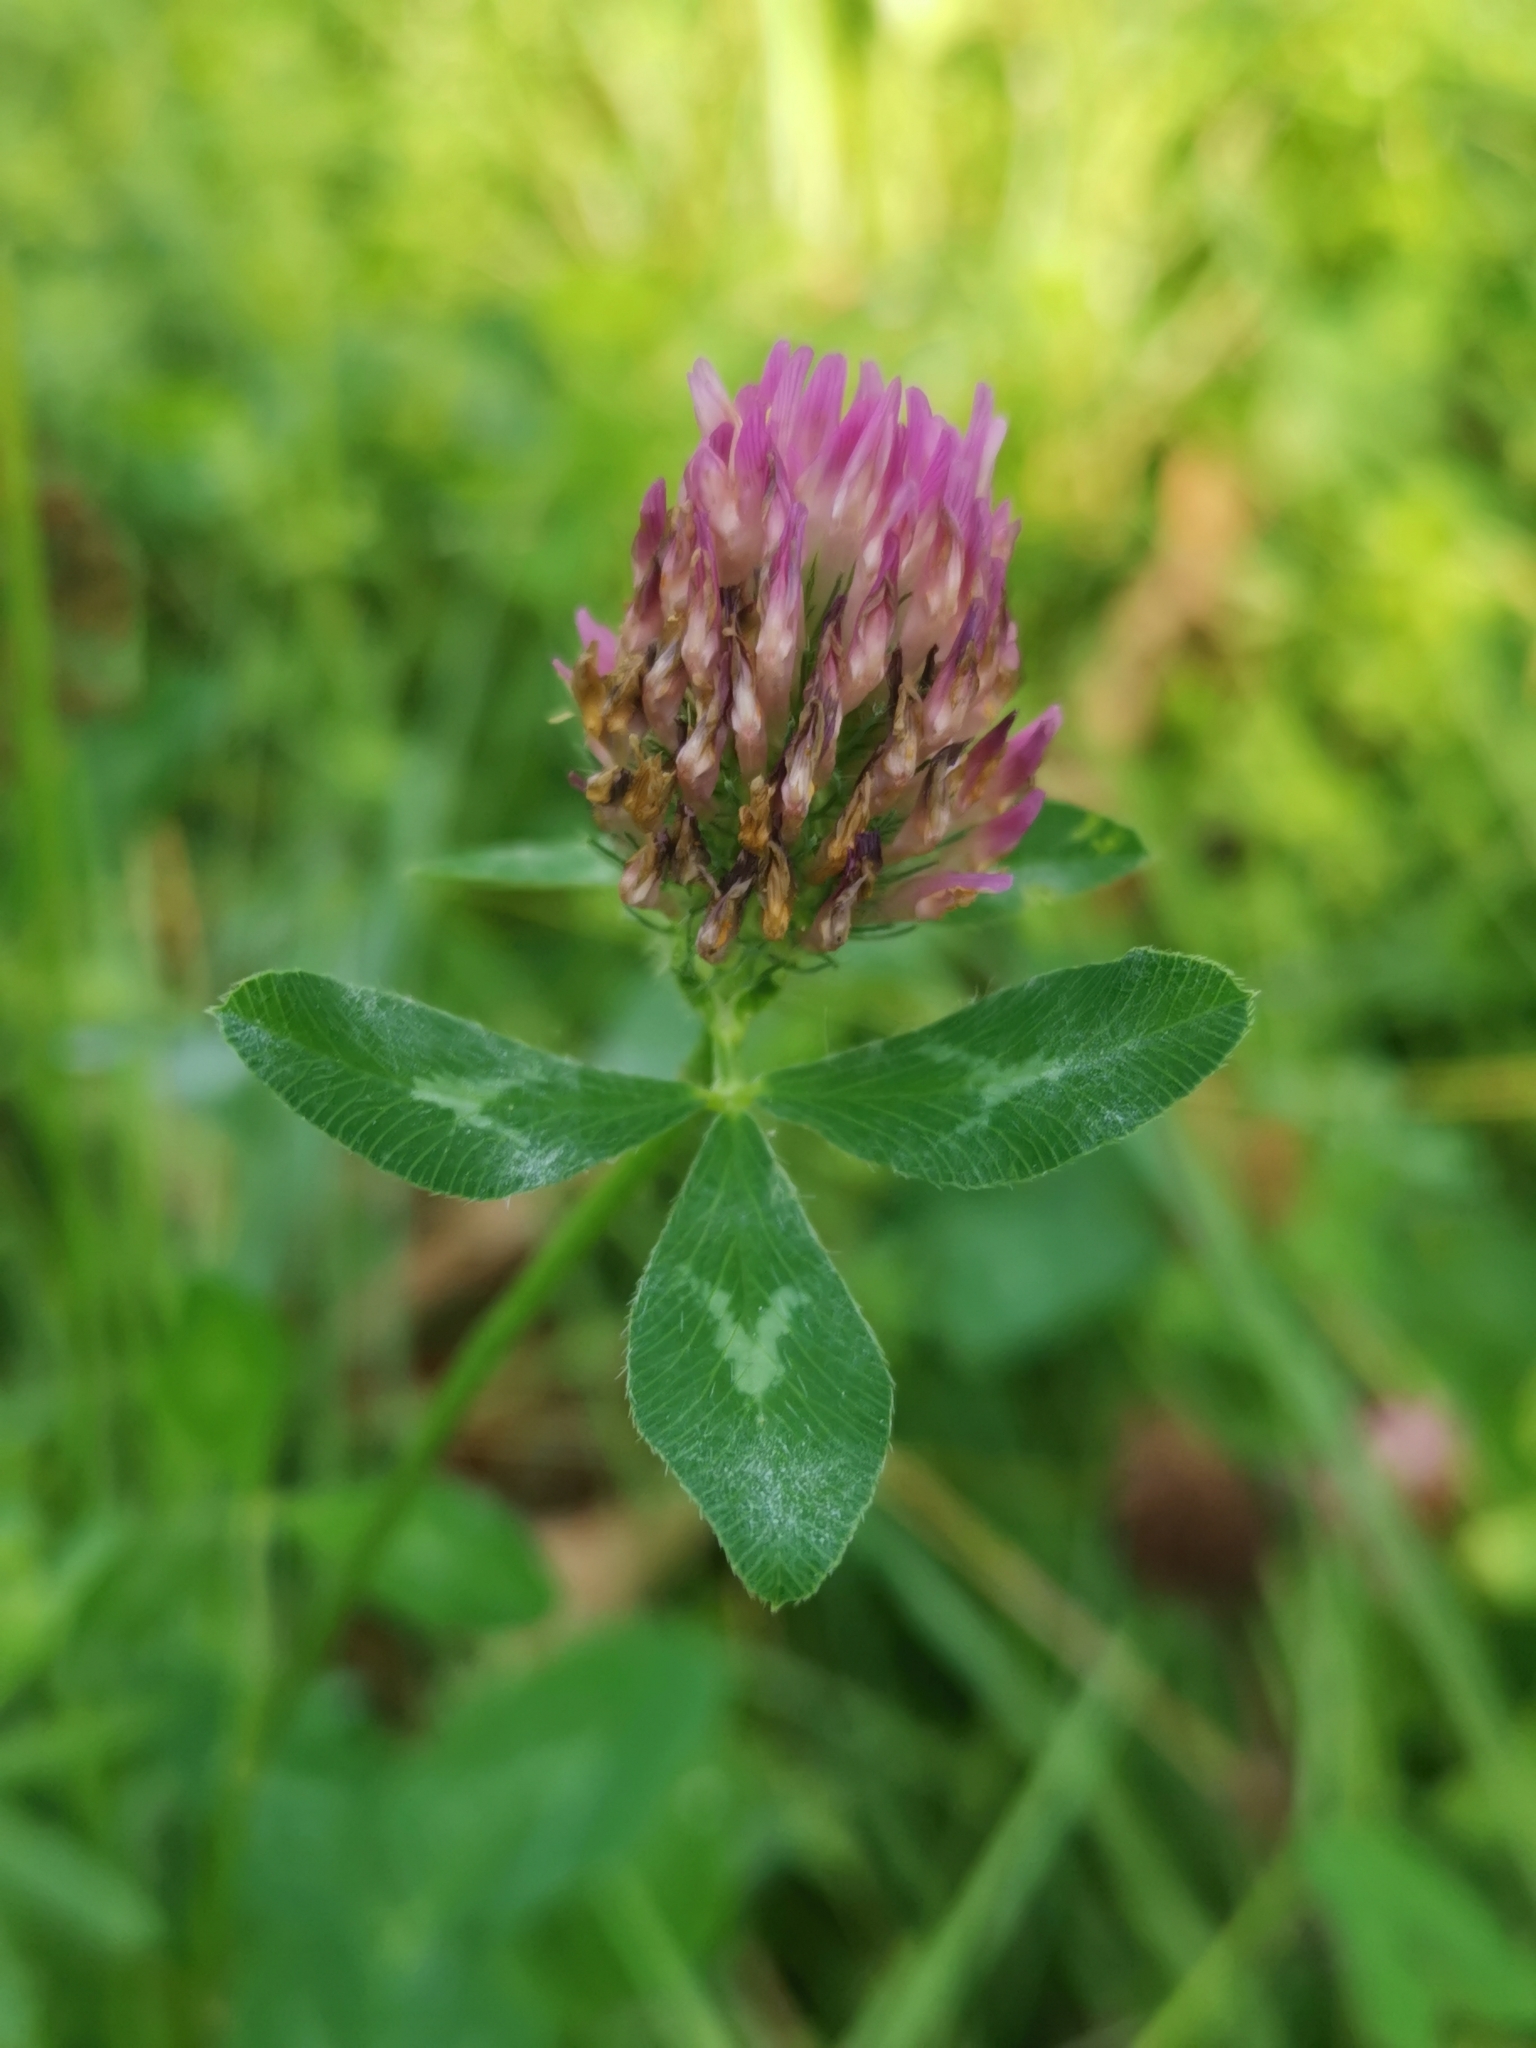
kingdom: Plantae
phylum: Tracheophyta
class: Magnoliopsida
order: Fabales
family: Fabaceae
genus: Trifolium
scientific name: Trifolium pratense
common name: Red clover
